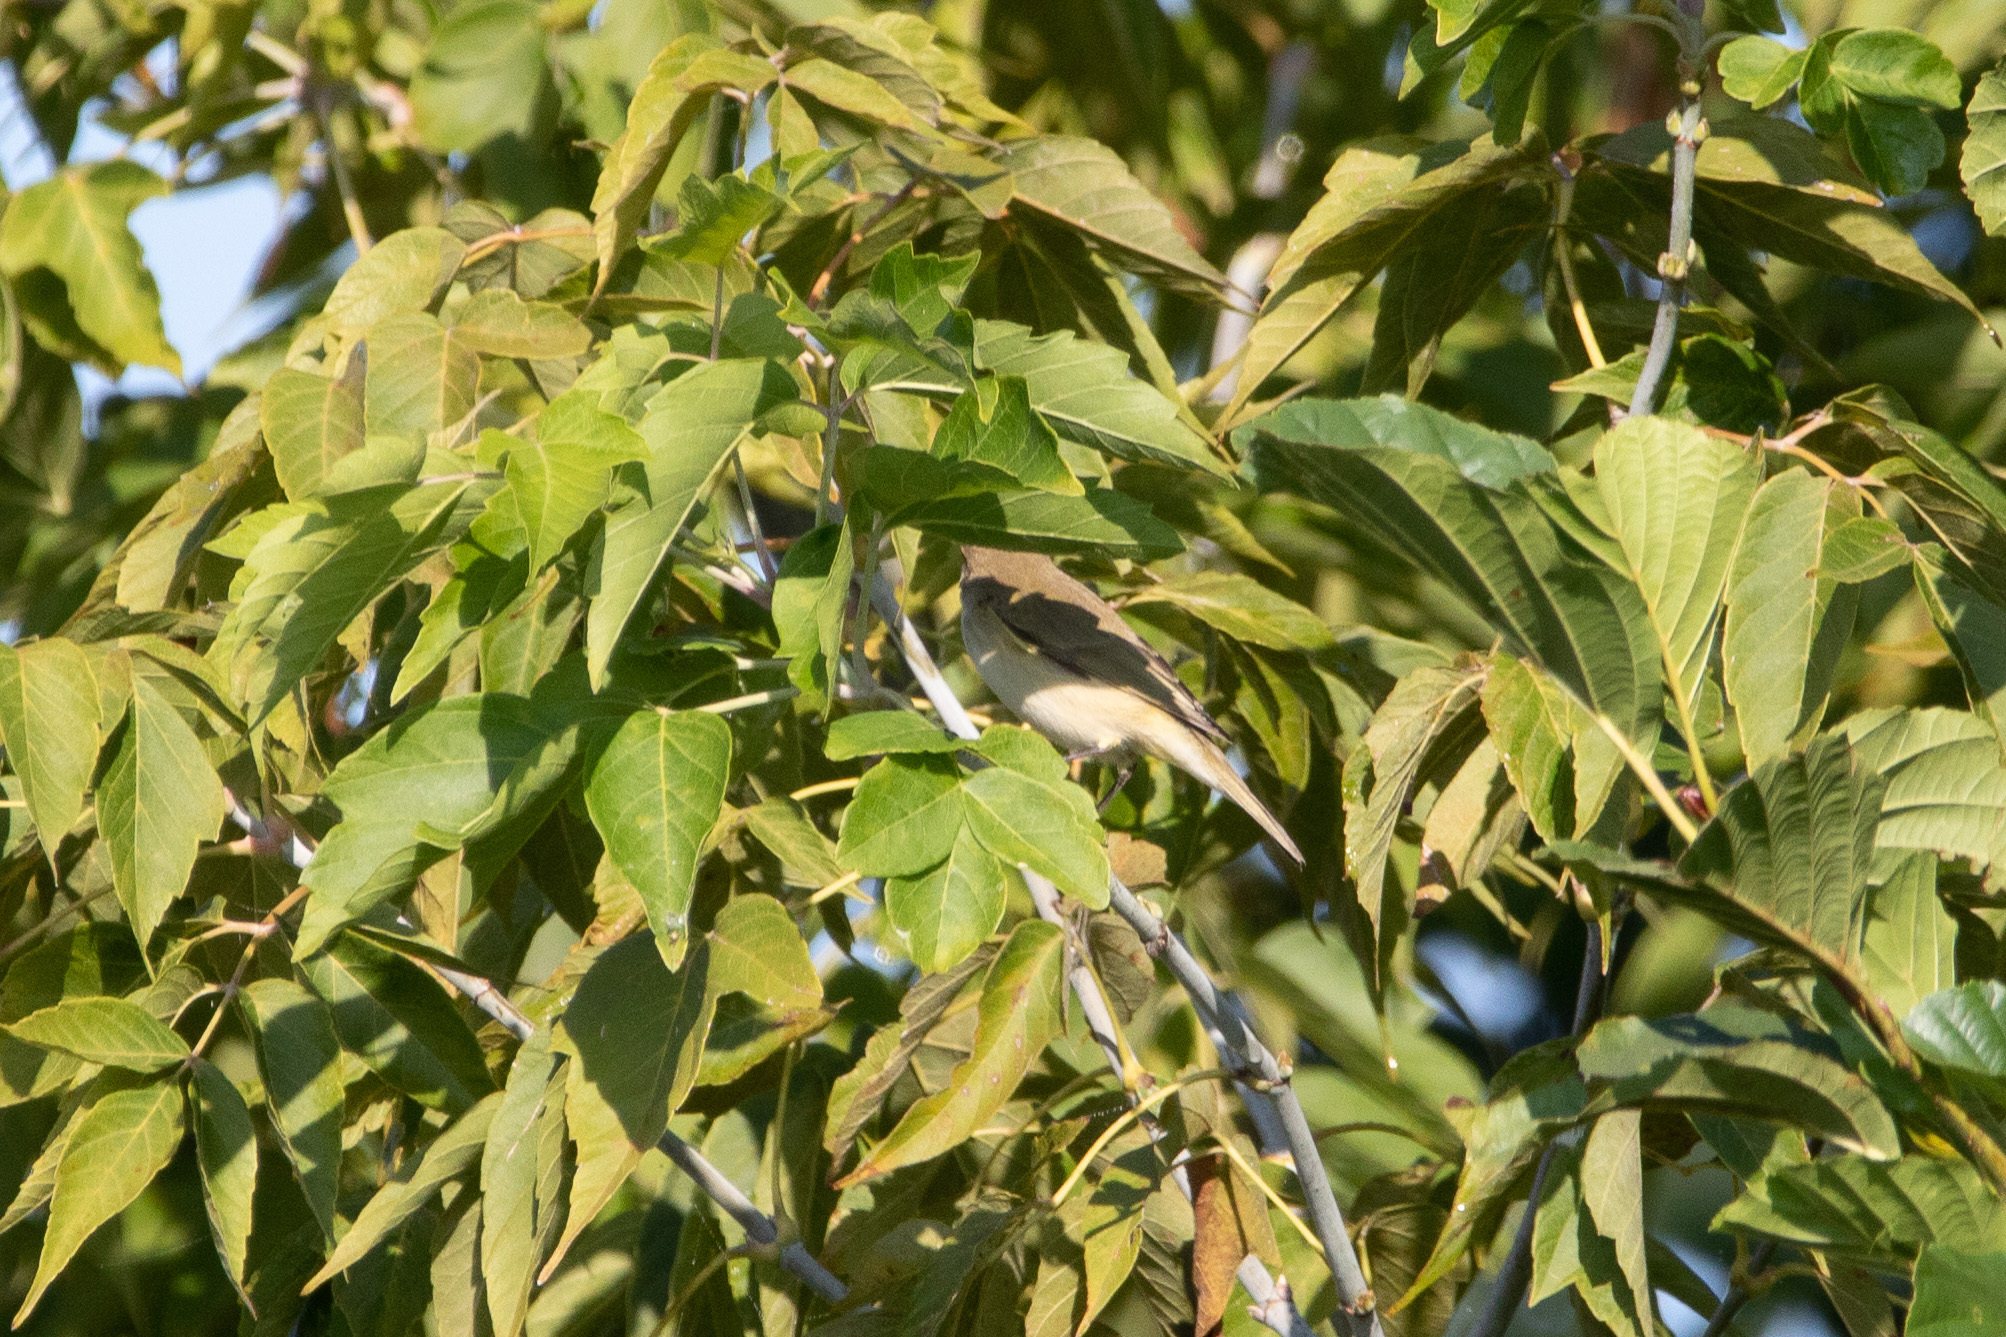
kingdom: Animalia
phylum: Chordata
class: Aves
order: Passeriformes
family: Phylloscopidae
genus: Phylloscopus
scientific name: Phylloscopus collybita
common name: Common chiffchaff
